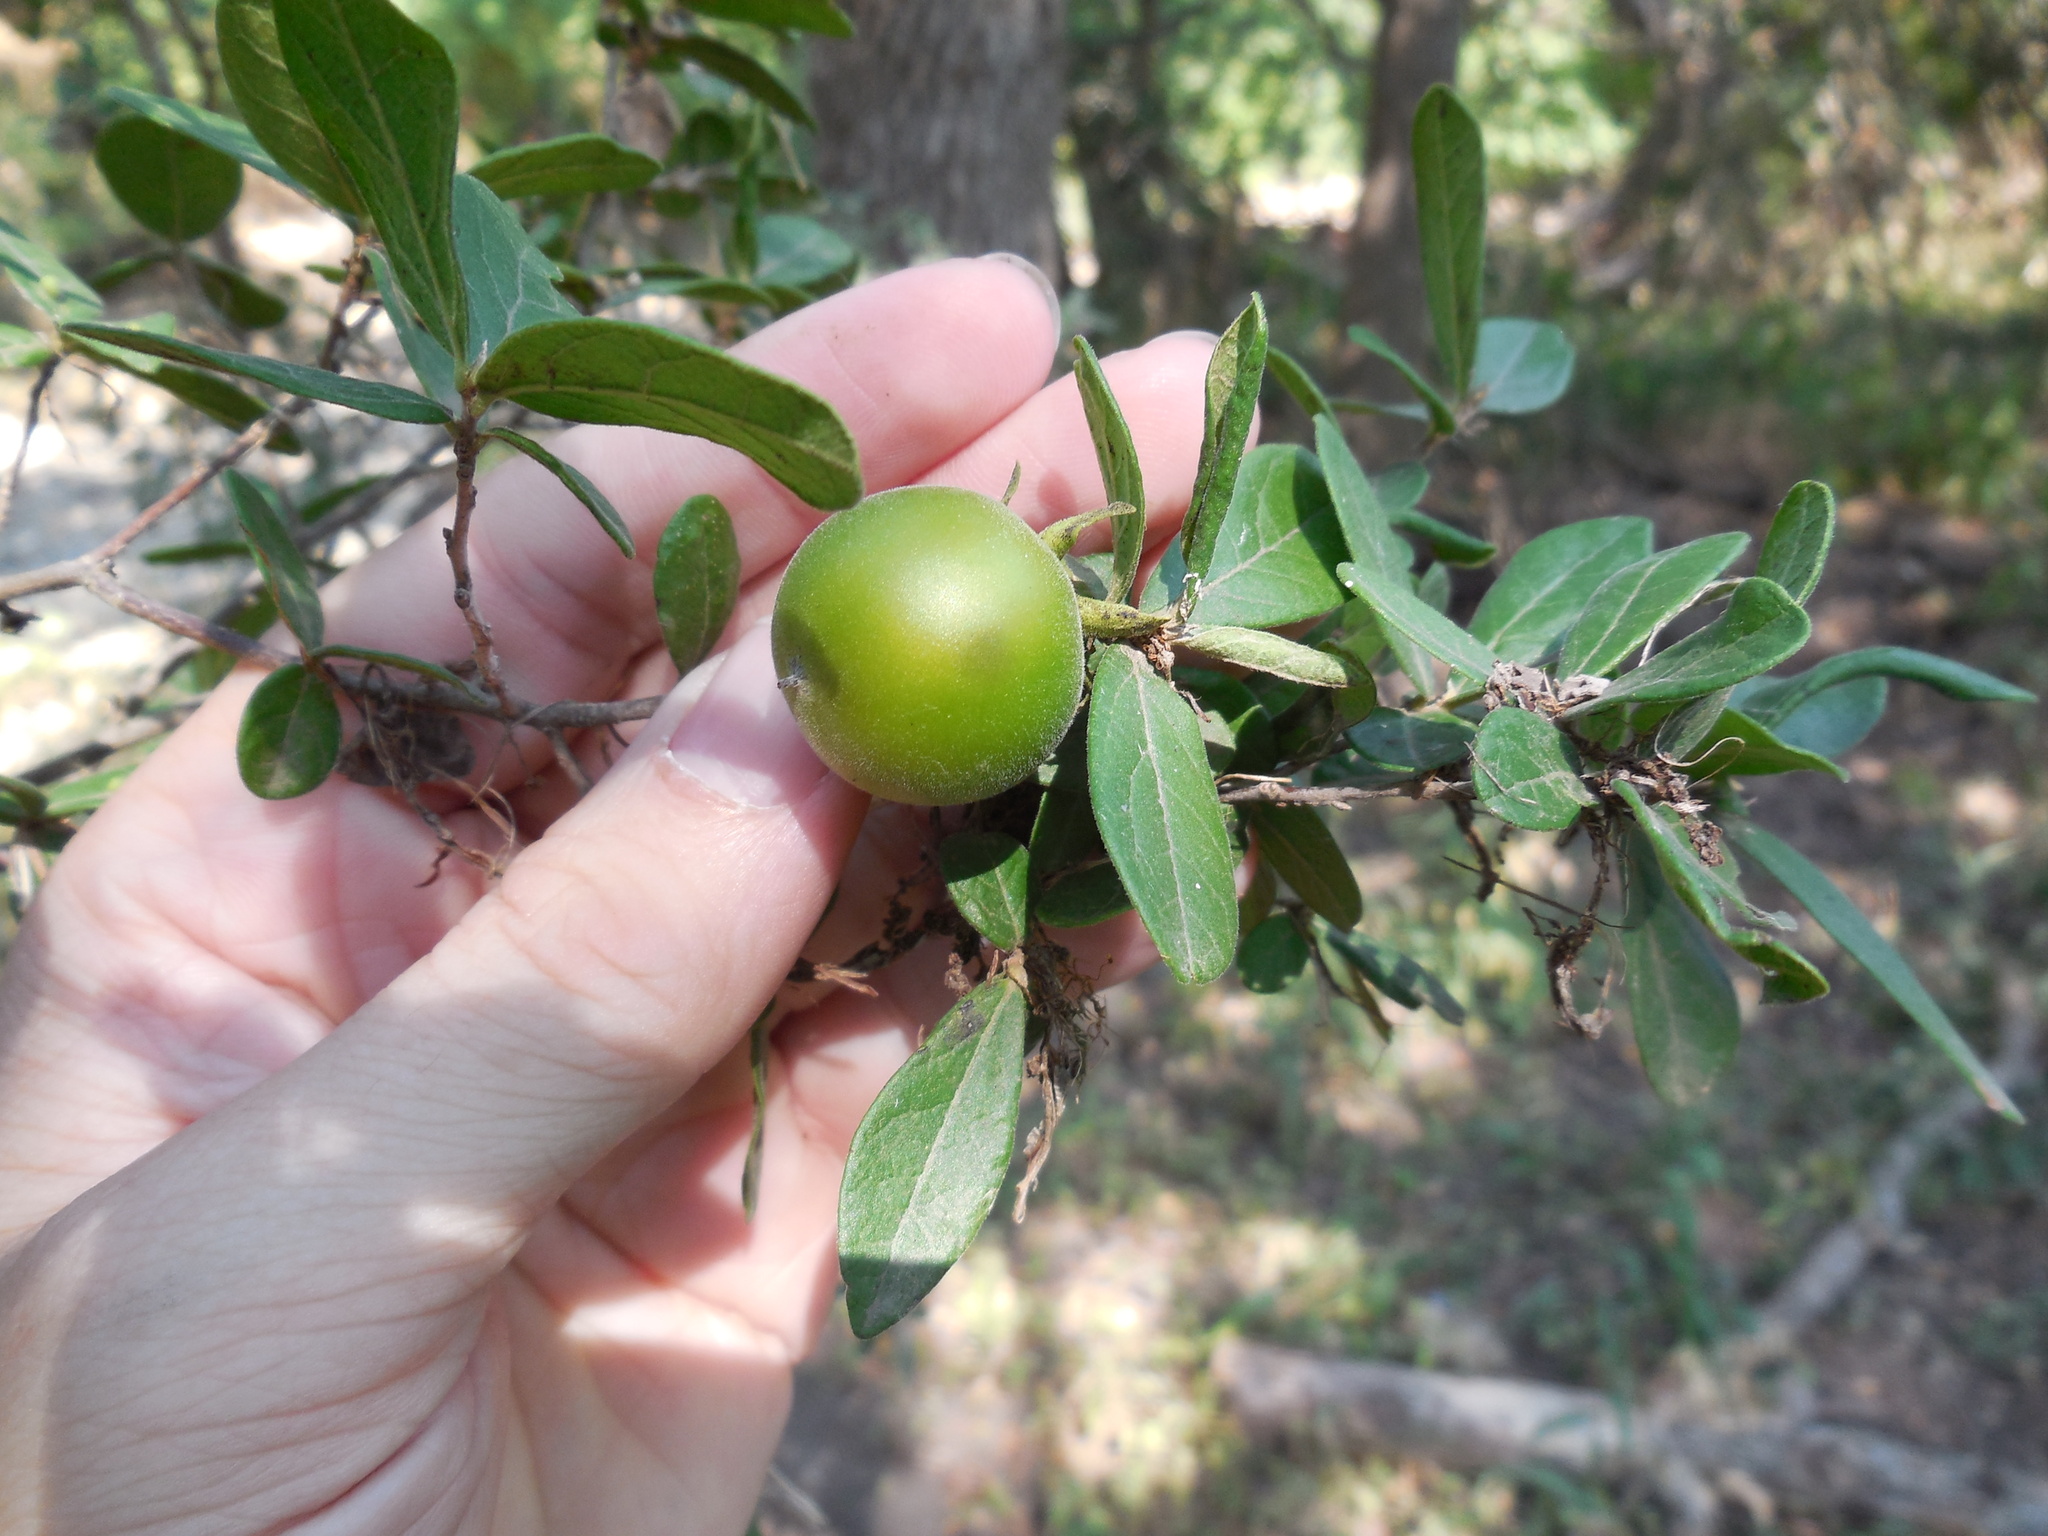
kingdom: Plantae
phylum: Tracheophyta
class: Magnoliopsida
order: Ericales
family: Ebenaceae
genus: Diospyros
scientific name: Diospyros texana
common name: Texas persimmon
